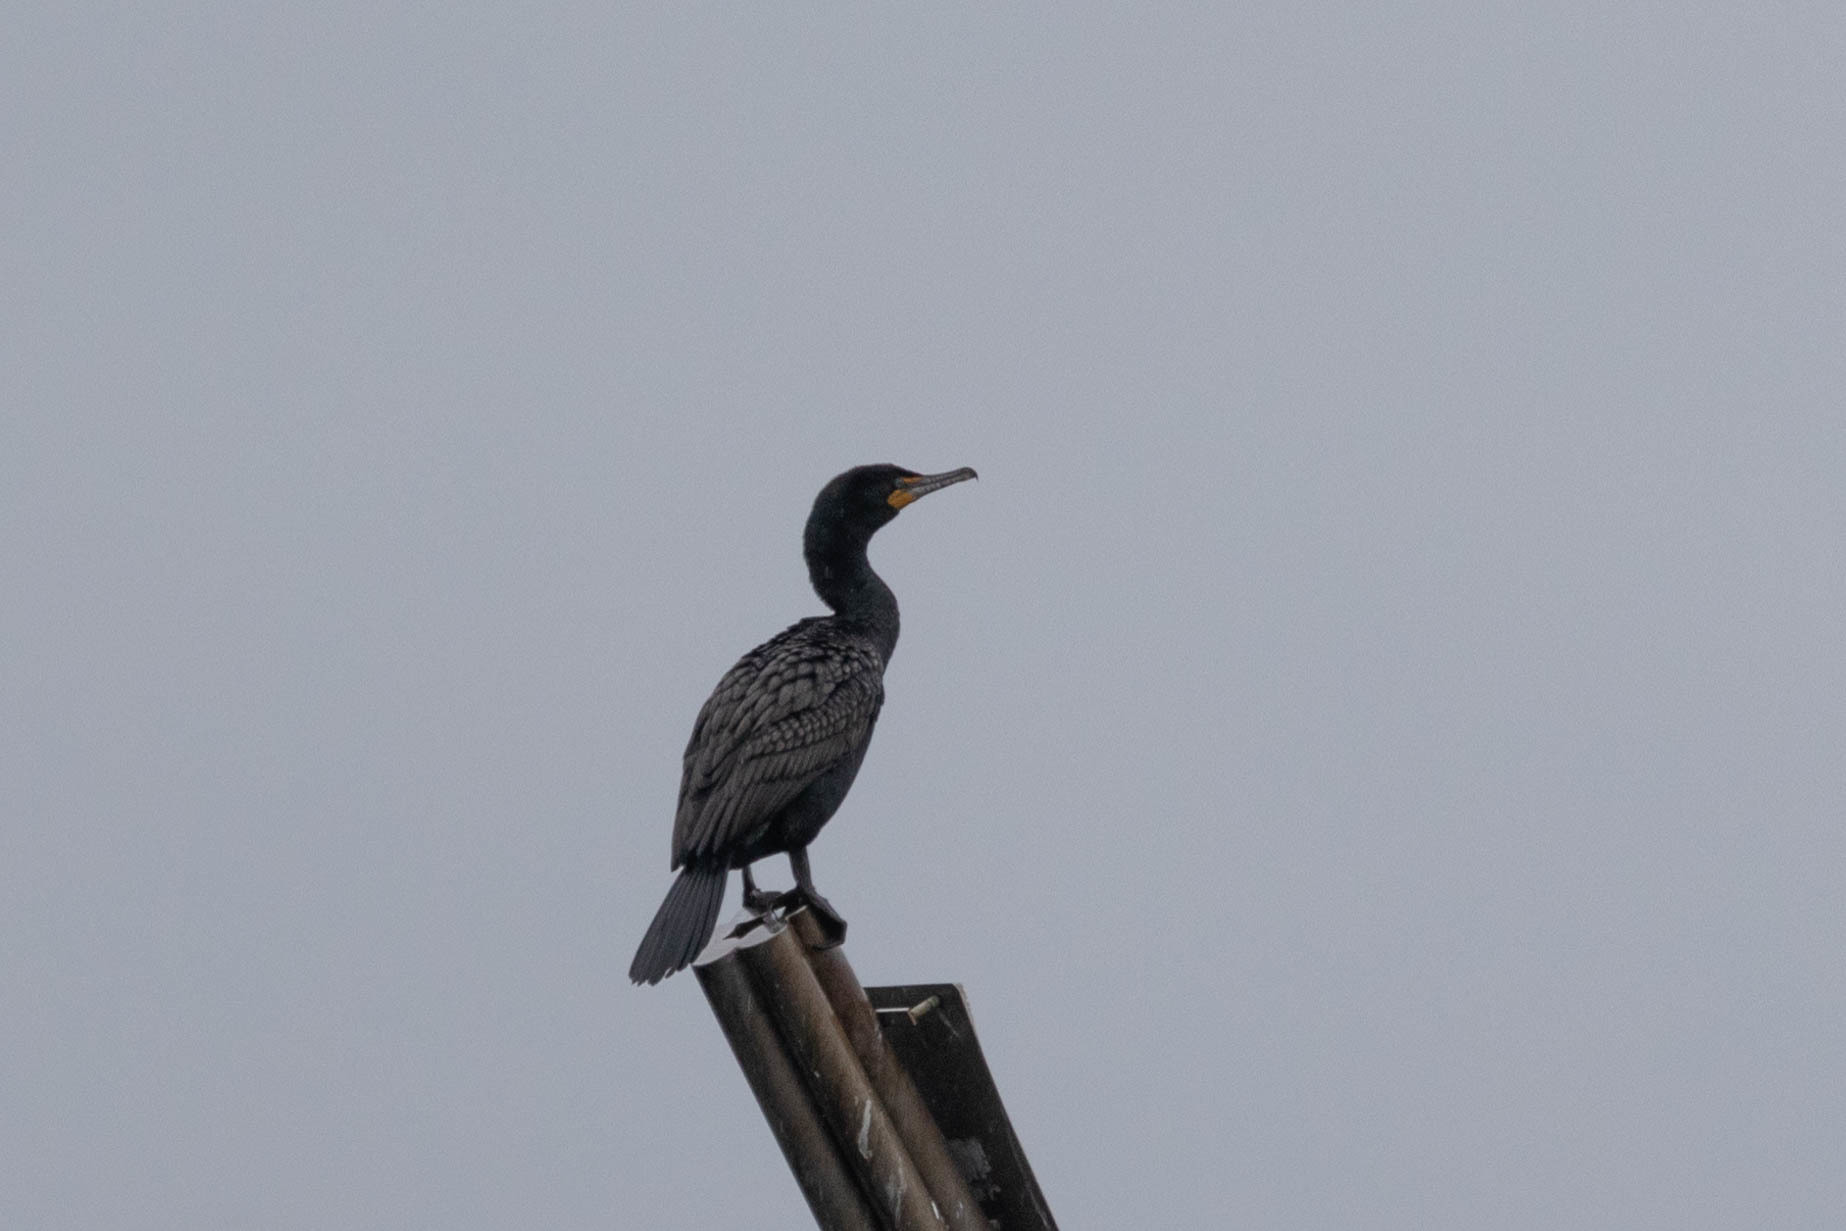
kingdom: Animalia
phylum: Chordata
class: Aves
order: Suliformes
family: Phalacrocoracidae
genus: Phalacrocorax
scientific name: Phalacrocorax auritus
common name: Double-crested cormorant
